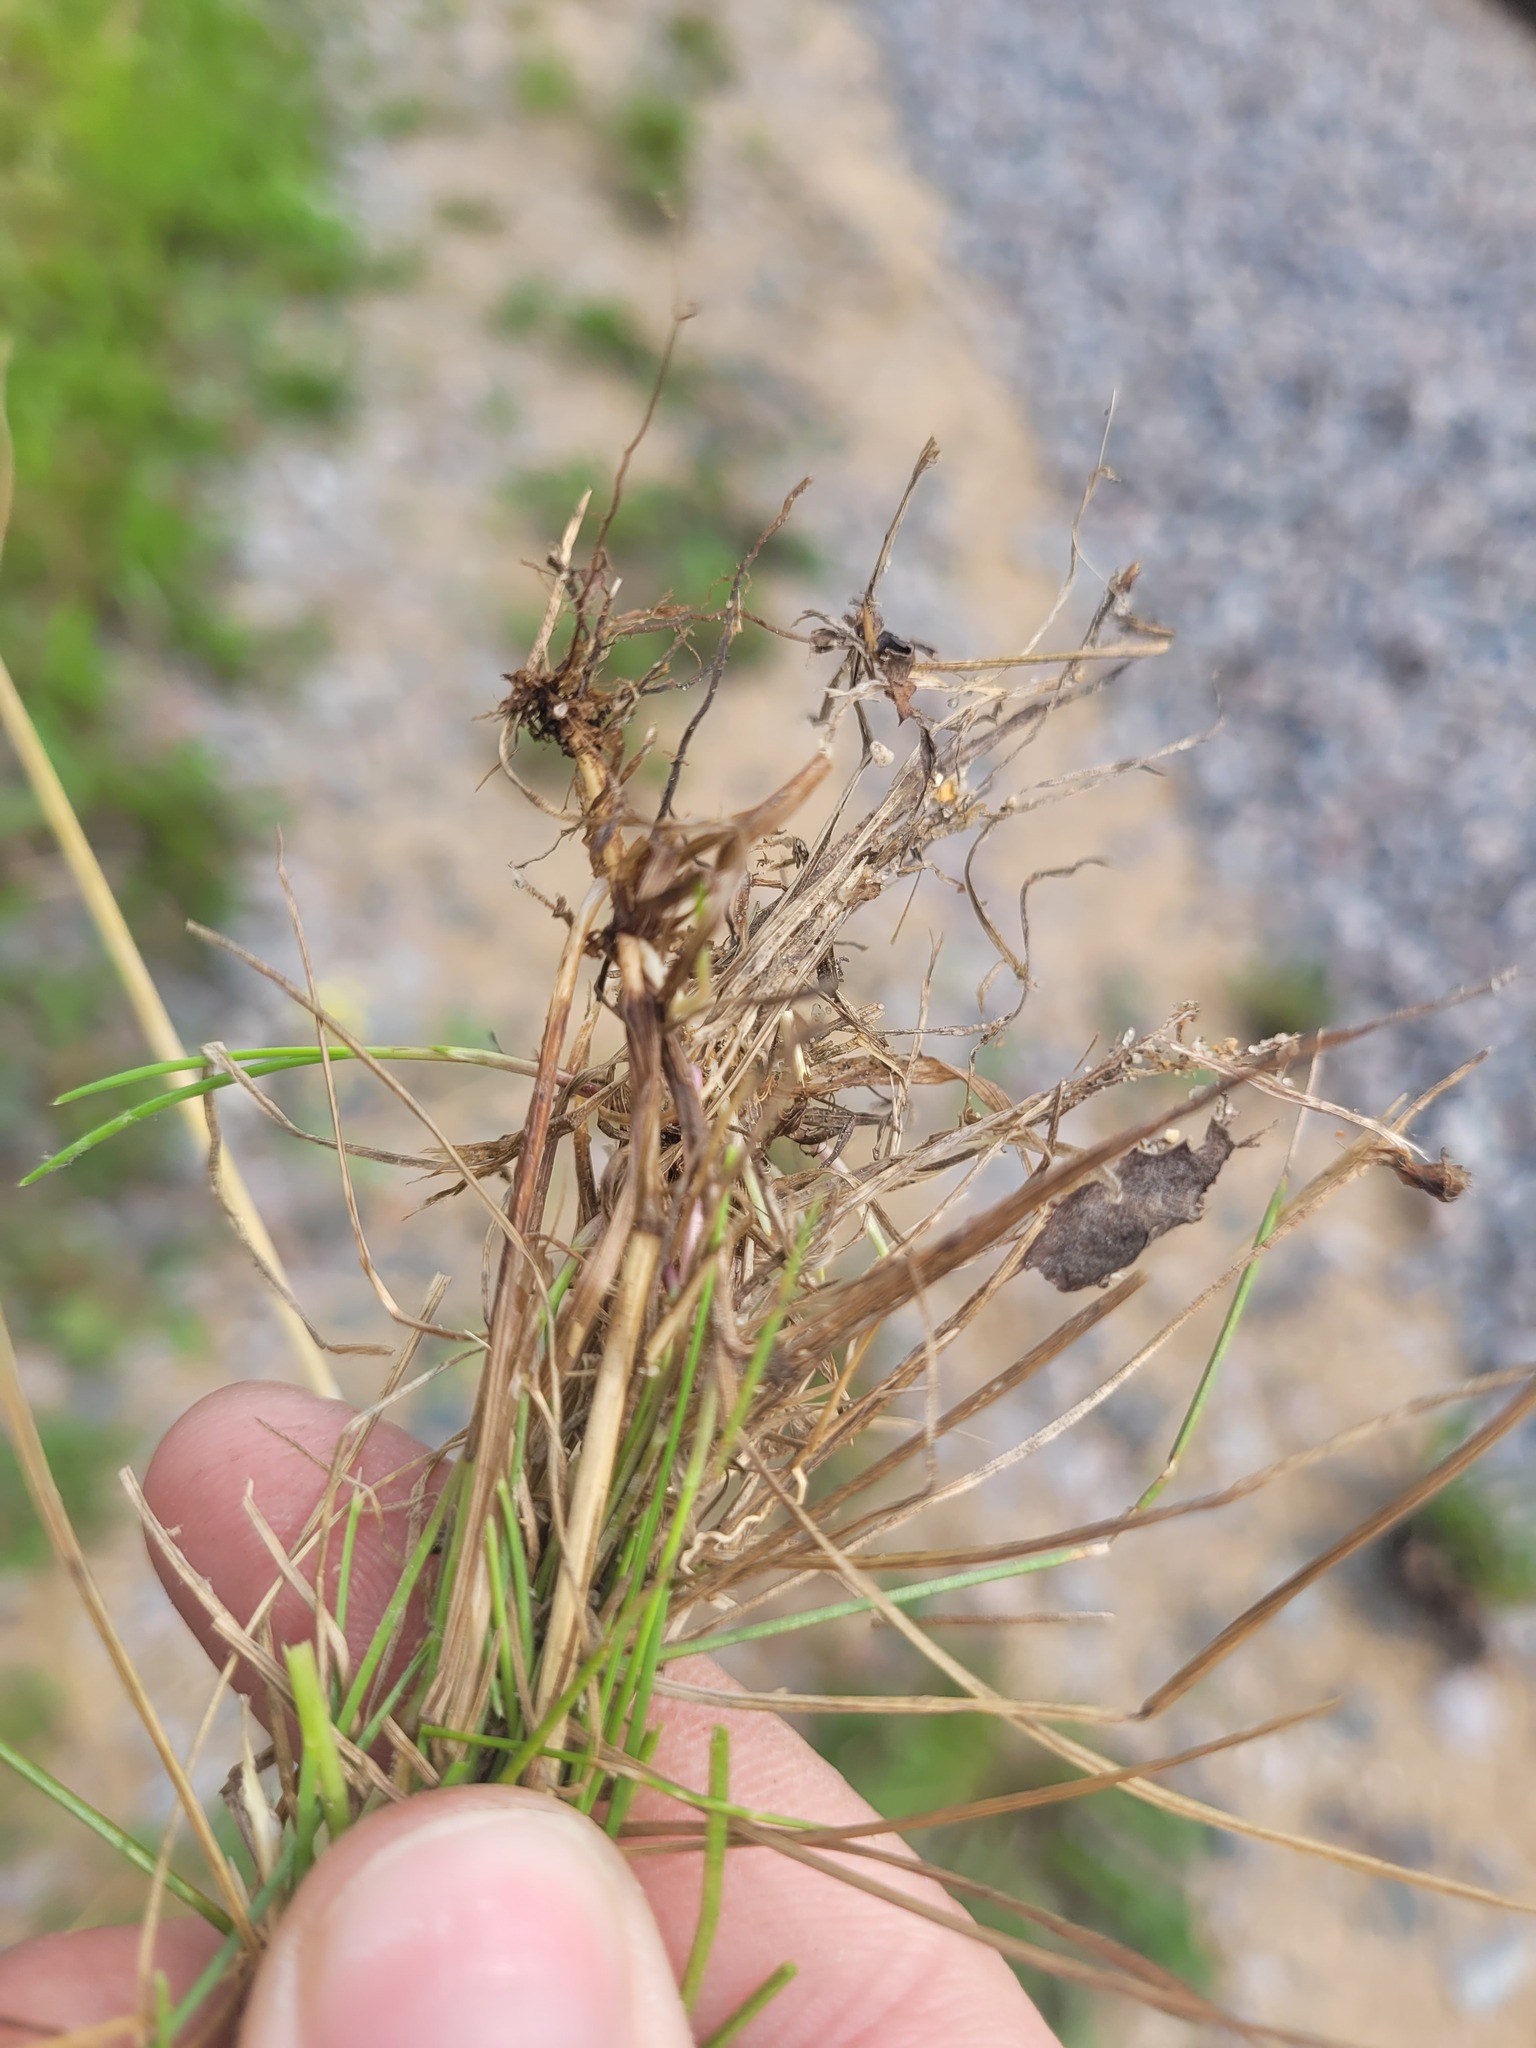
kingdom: Plantae
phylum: Tracheophyta
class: Liliopsida
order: Poales
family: Poaceae
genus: Festuca
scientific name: Festuca rubra
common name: Red fescue
